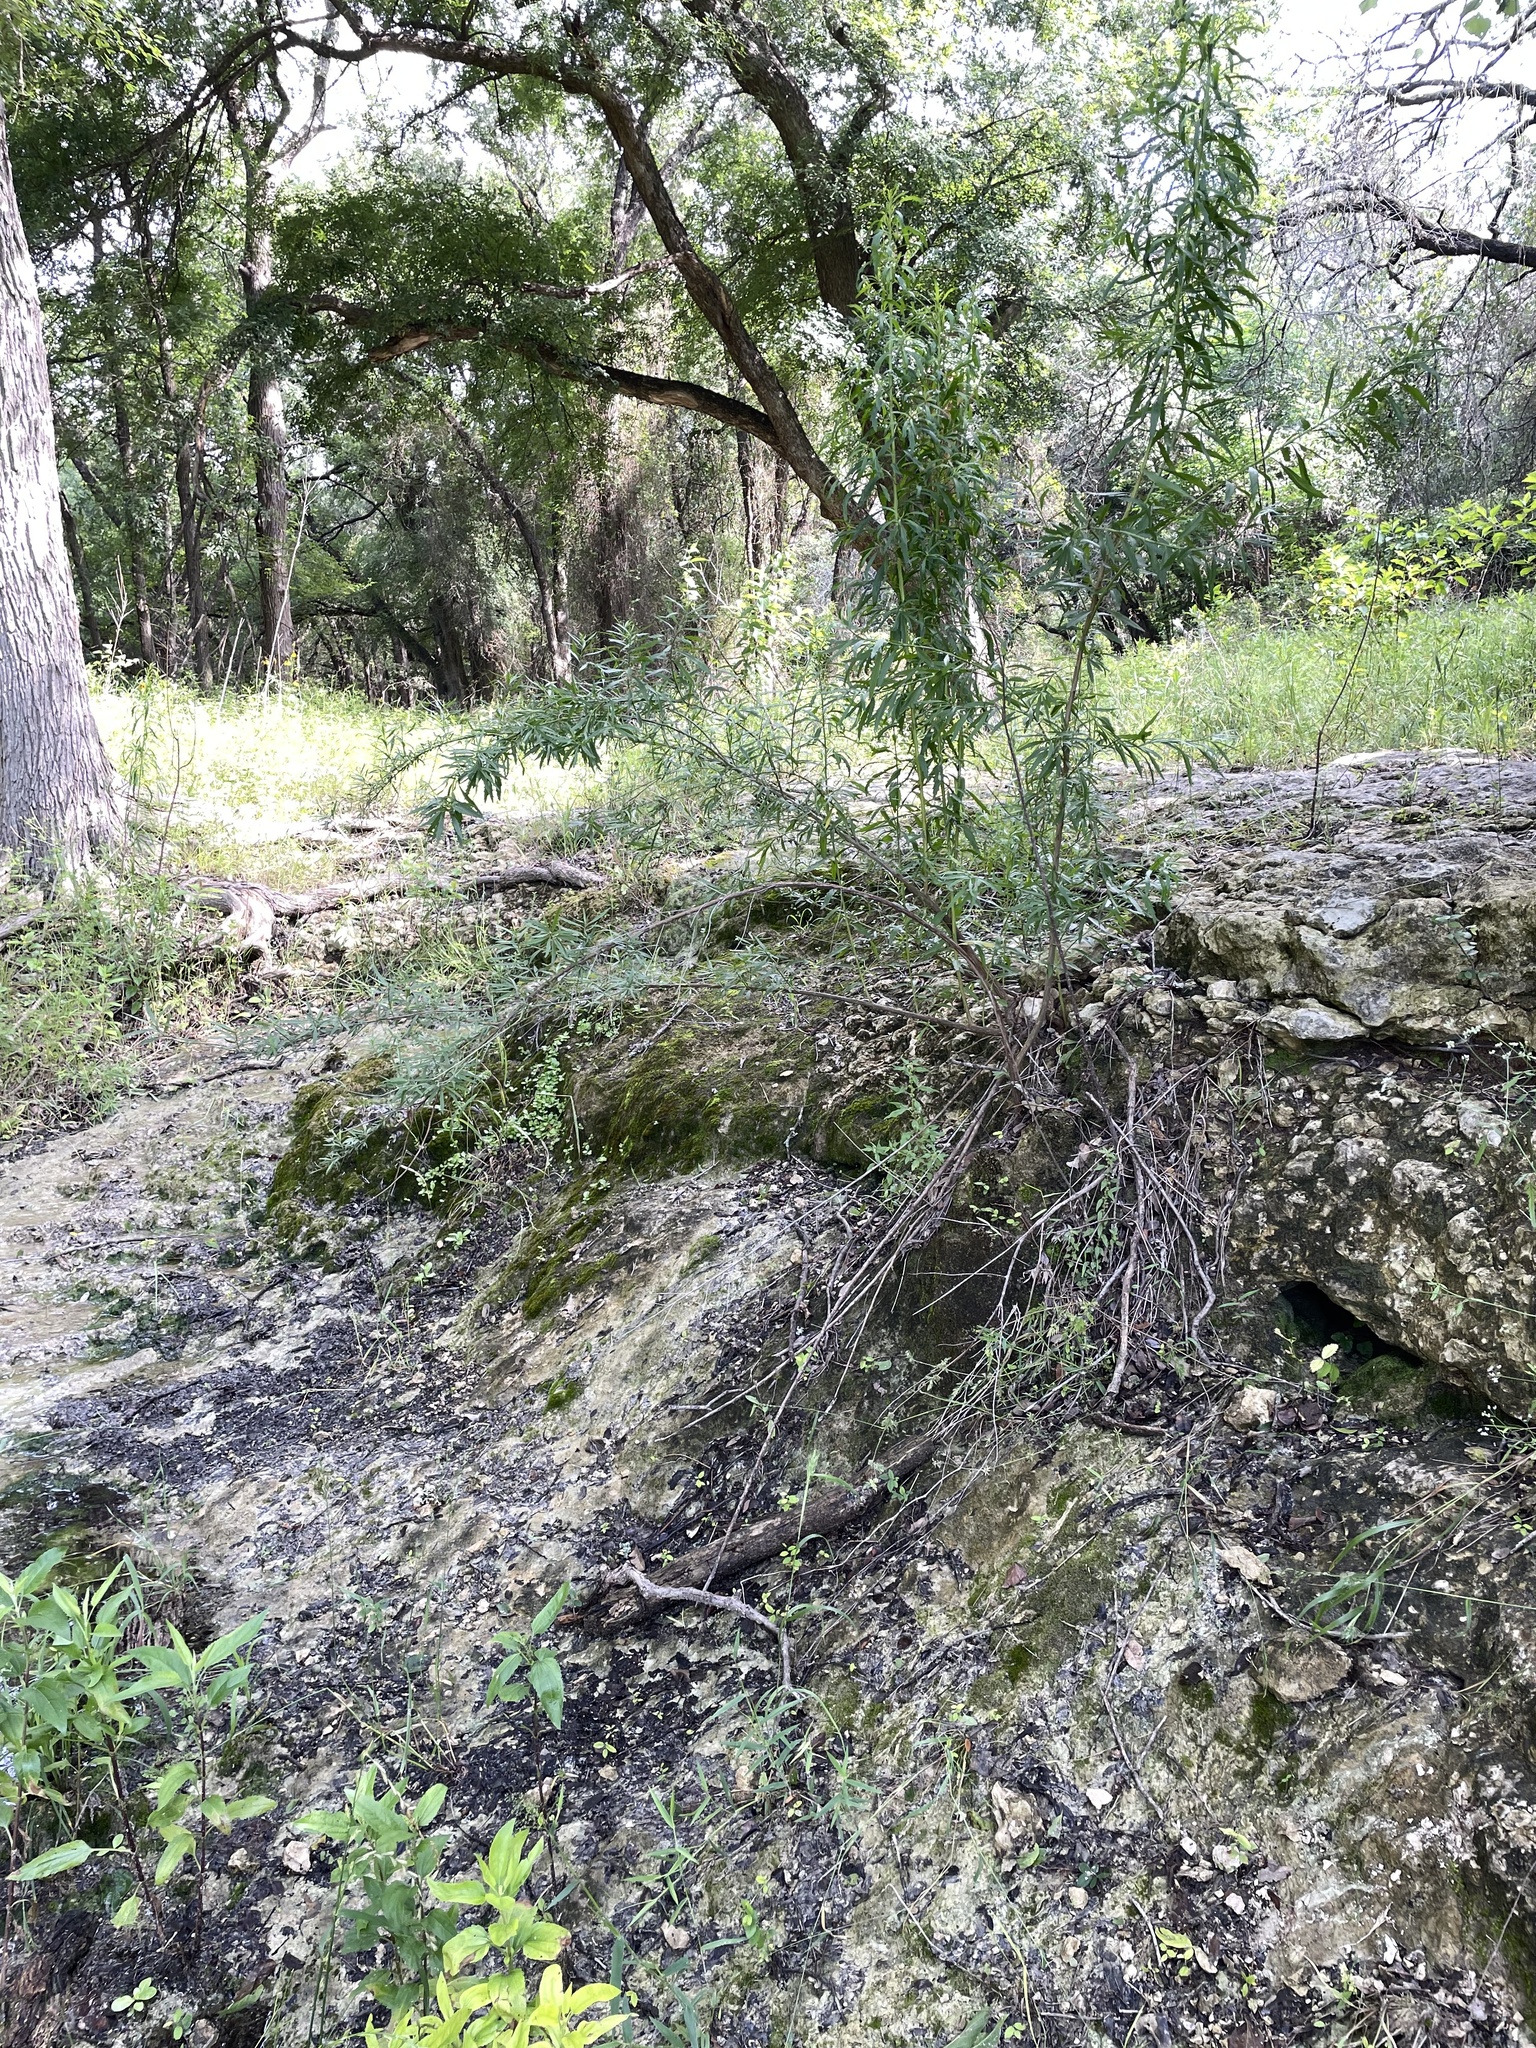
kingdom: Plantae
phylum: Tracheophyta
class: Magnoliopsida
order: Asterales
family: Asteraceae
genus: Baccharis
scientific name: Baccharis neglecta
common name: Roosevelt-weed
